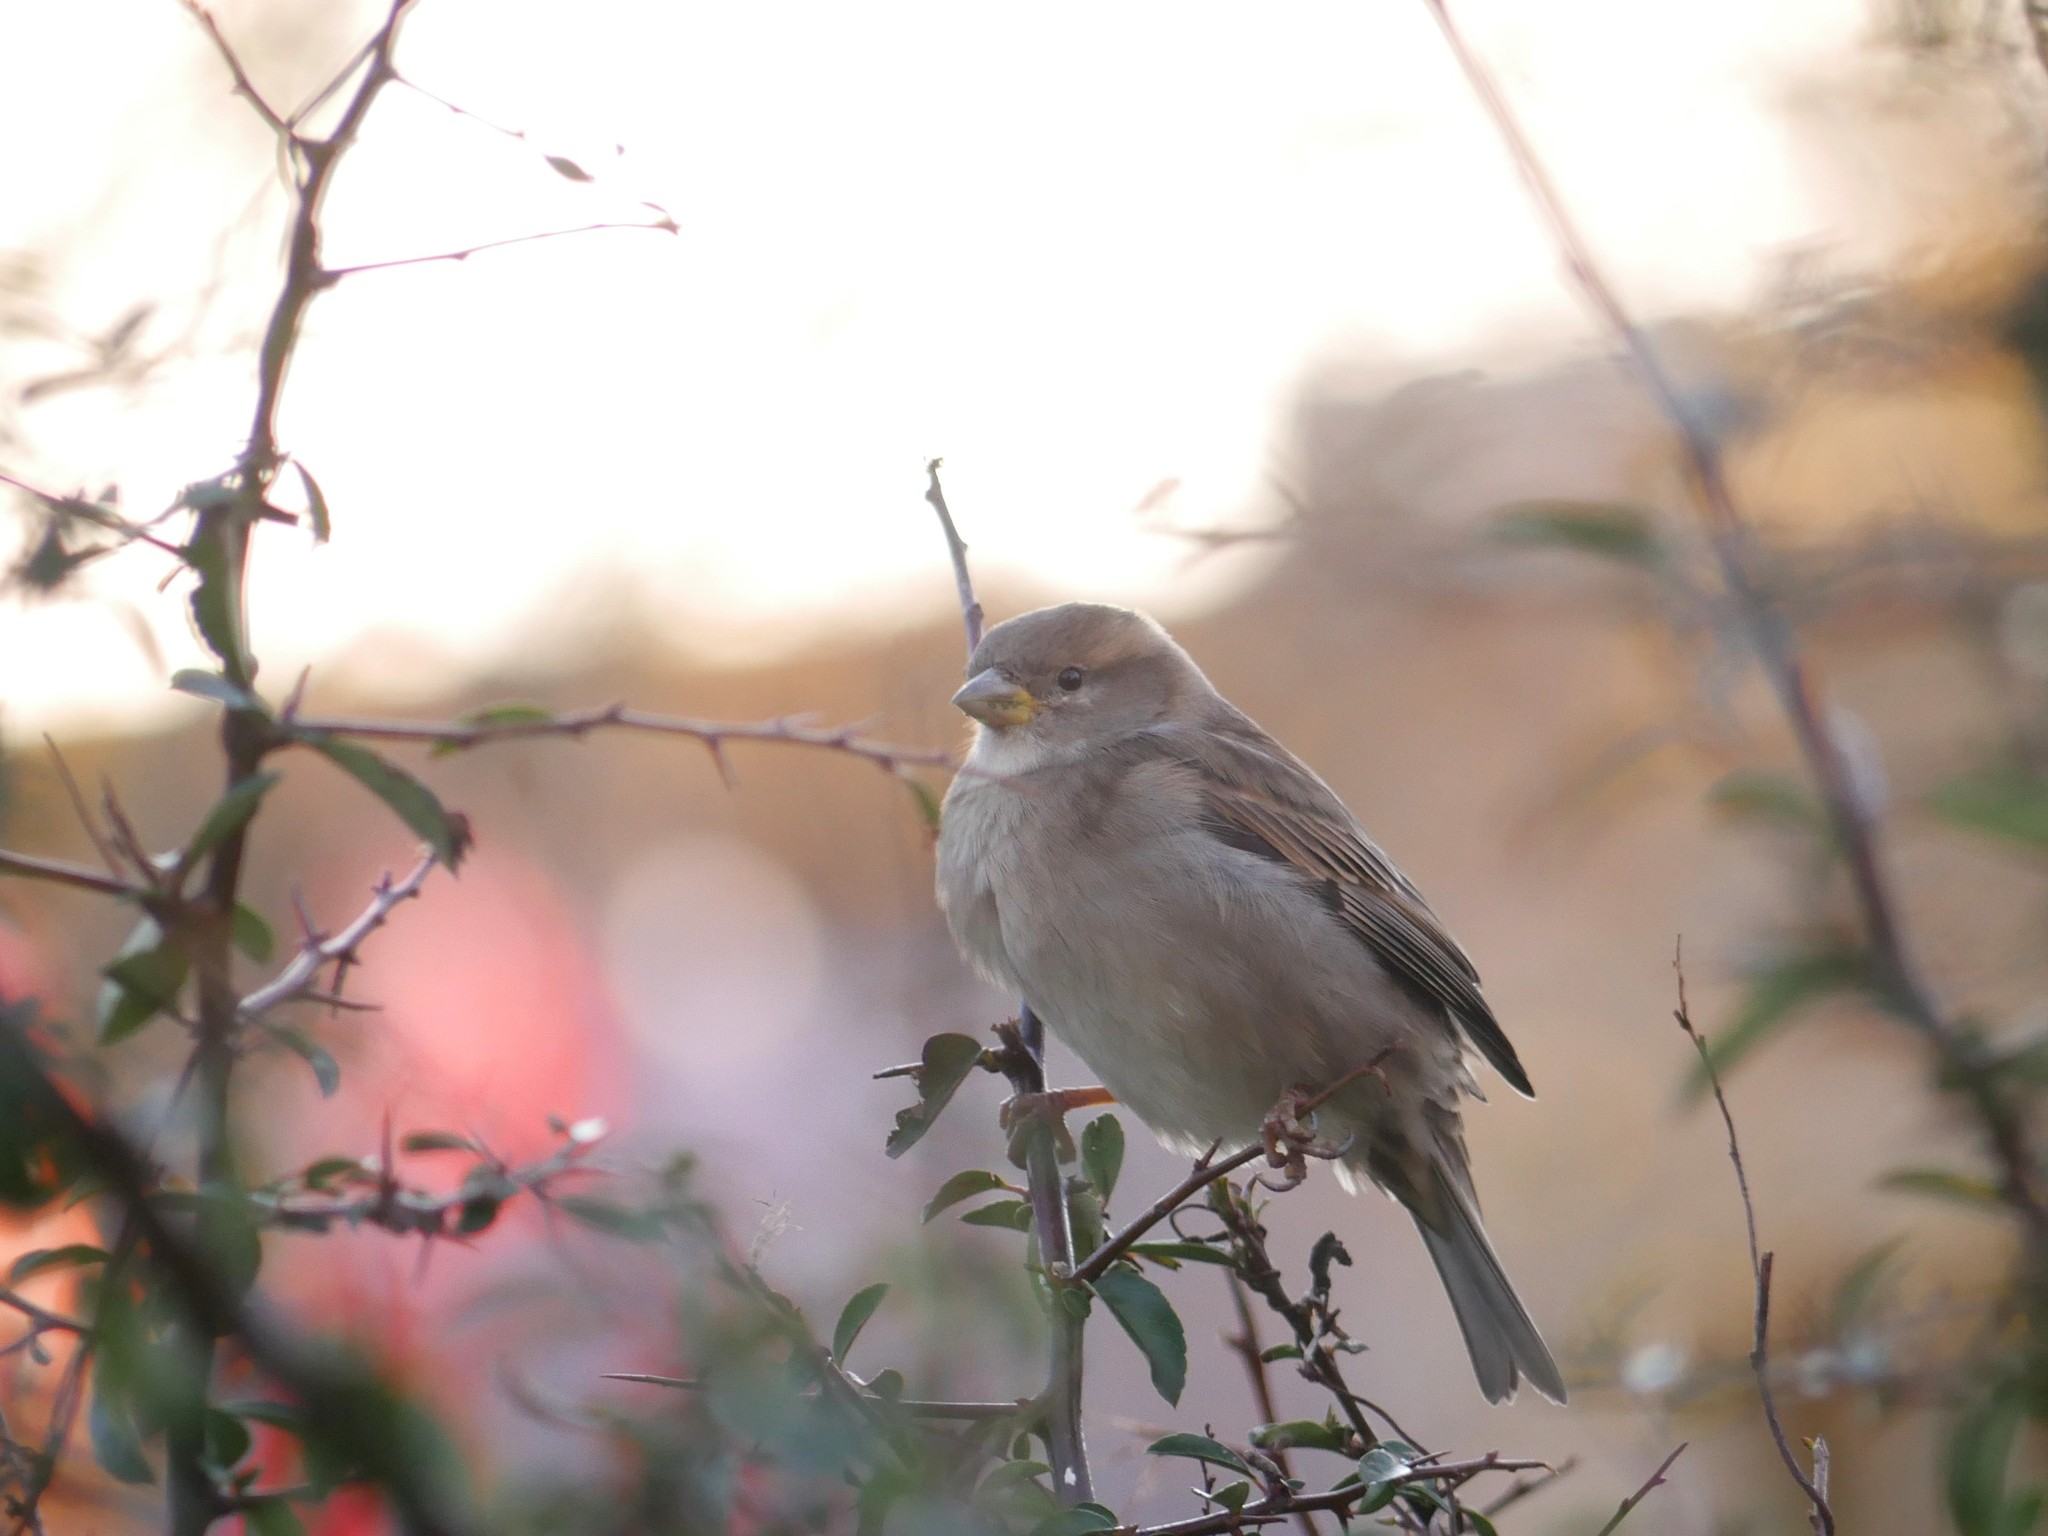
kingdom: Animalia
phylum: Chordata
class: Aves
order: Passeriformes
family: Passeridae
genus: Passer
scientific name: Passer domesticus
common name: House sparrow
